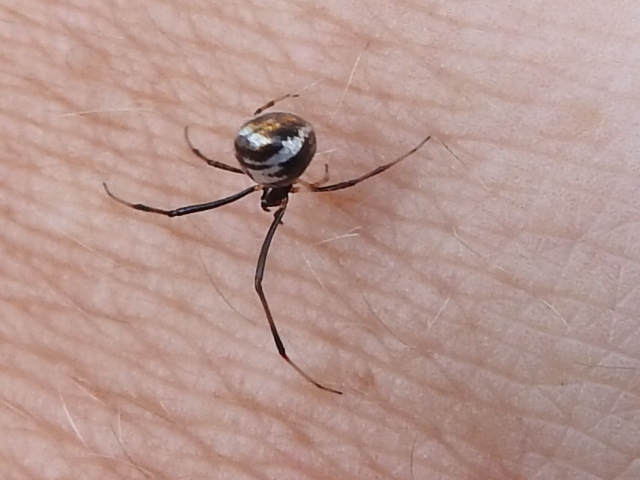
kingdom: Animalia
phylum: Arthropoda
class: Arachnida
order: Araneae
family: Theridiidae
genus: Argyrodes
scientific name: Argyrodes elevatus
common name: Cobweb spiders
